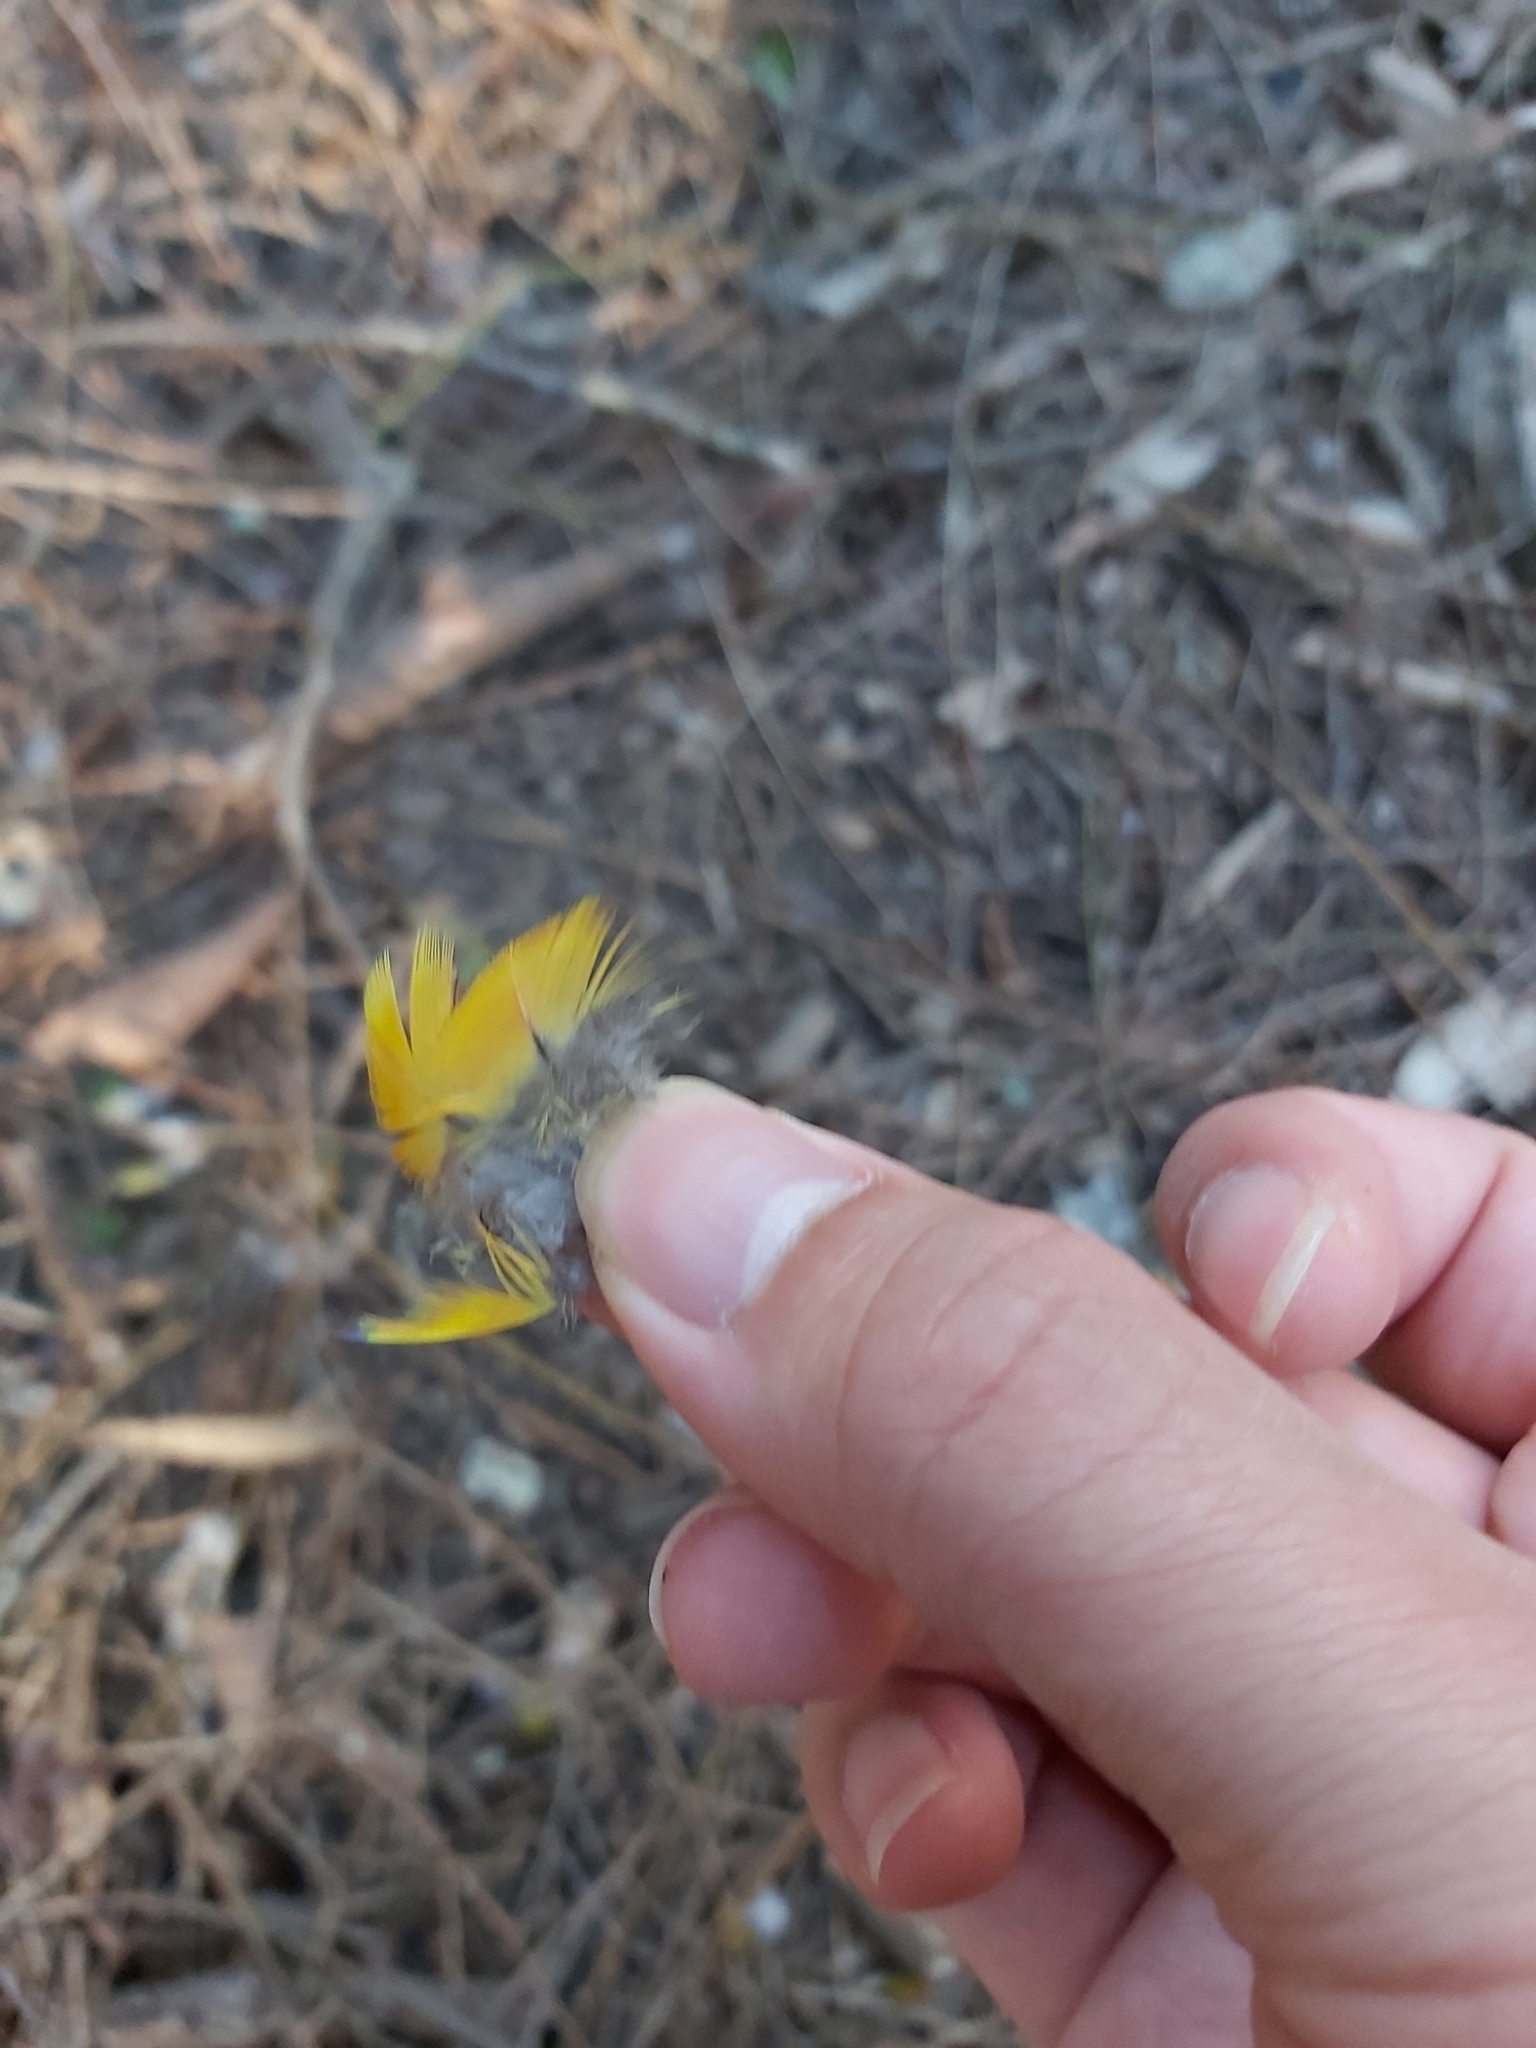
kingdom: Animalia
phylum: Chordata
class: Aves
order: Psittaciformes
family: Psittacidae
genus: Trichoglossus
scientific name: Trichoglossus haematodus
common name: Coconut lorikeet
